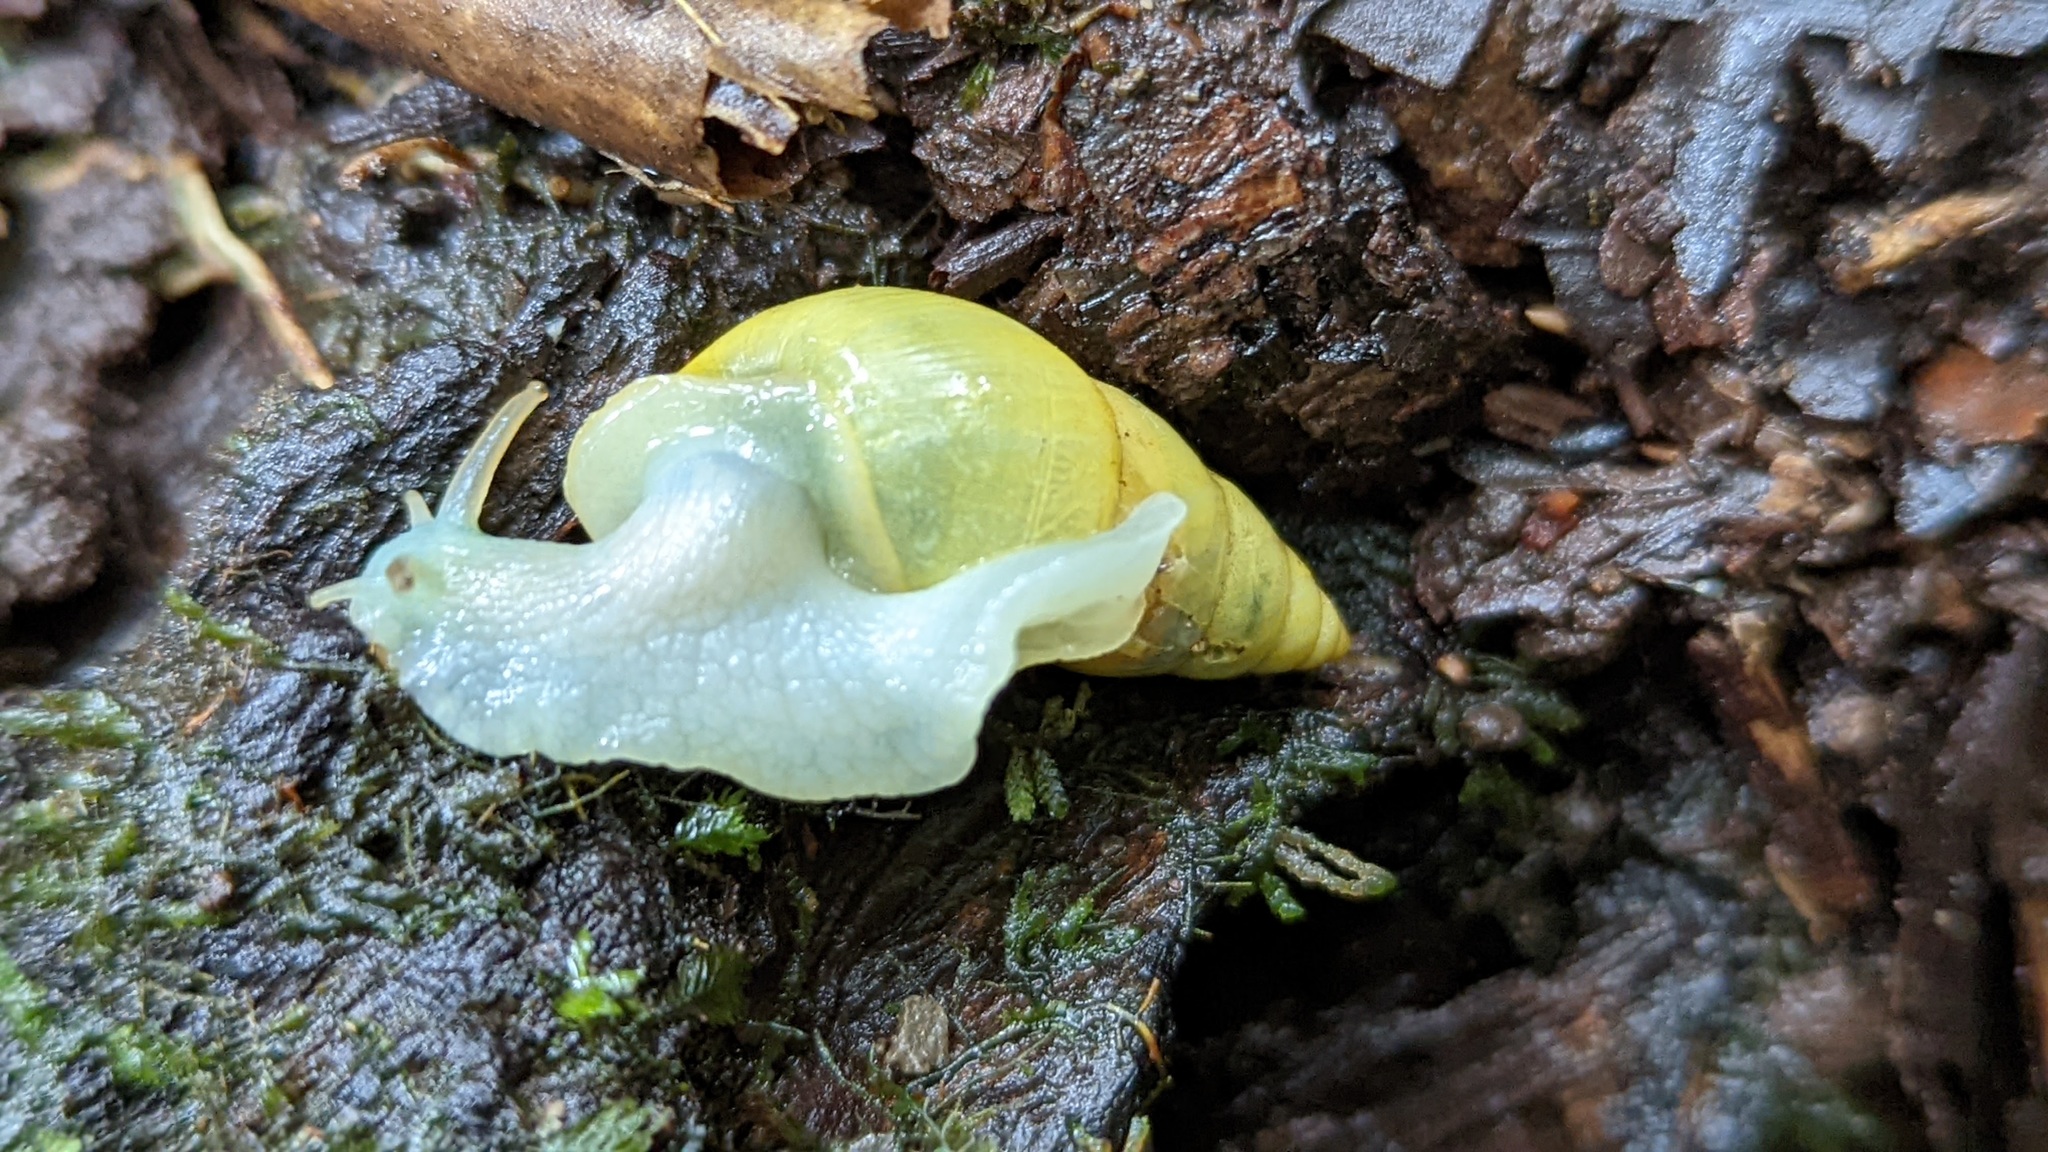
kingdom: Animalia
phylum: Mollusca
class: Gastropoda
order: Stylommatophora
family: Bulimulidae
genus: Drymaeus
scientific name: Drymaeus sulphureus
